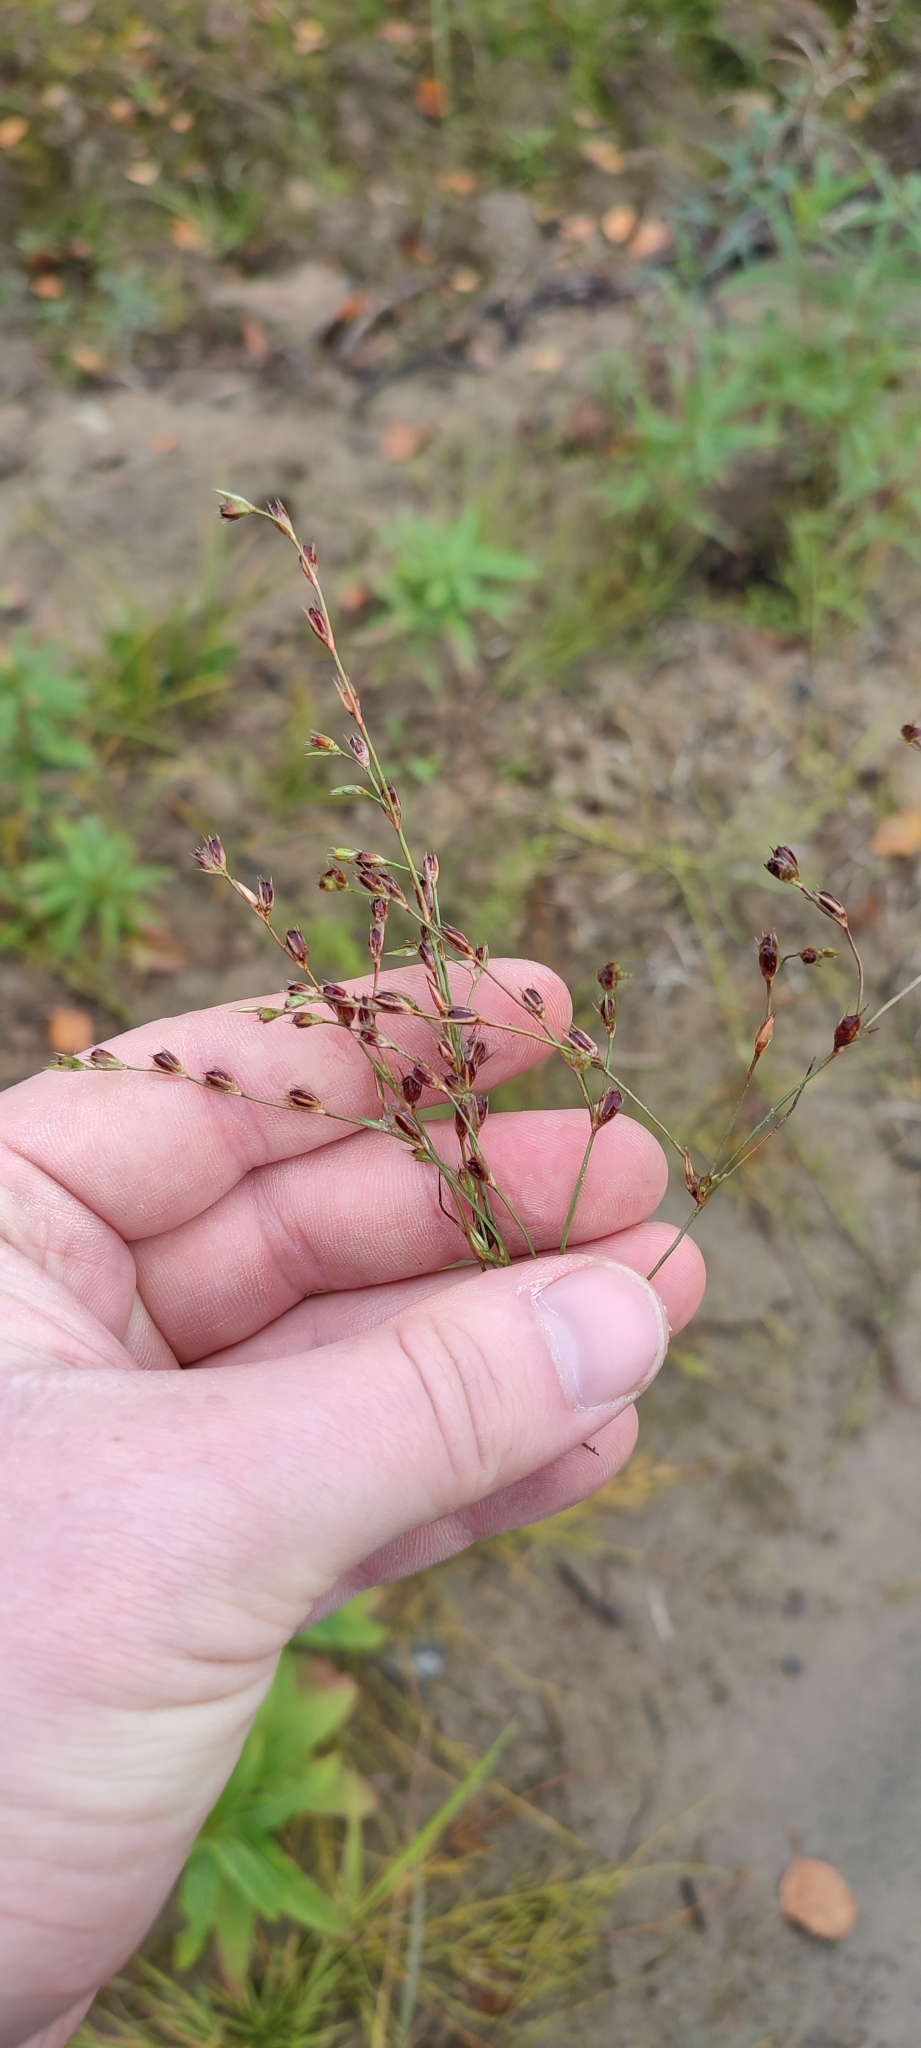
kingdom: Plantae
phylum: Tracheophyta
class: Liliopsida
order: Poales
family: Juncaceae
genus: Juncus
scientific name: Juncus bufonius
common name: Toad rush
